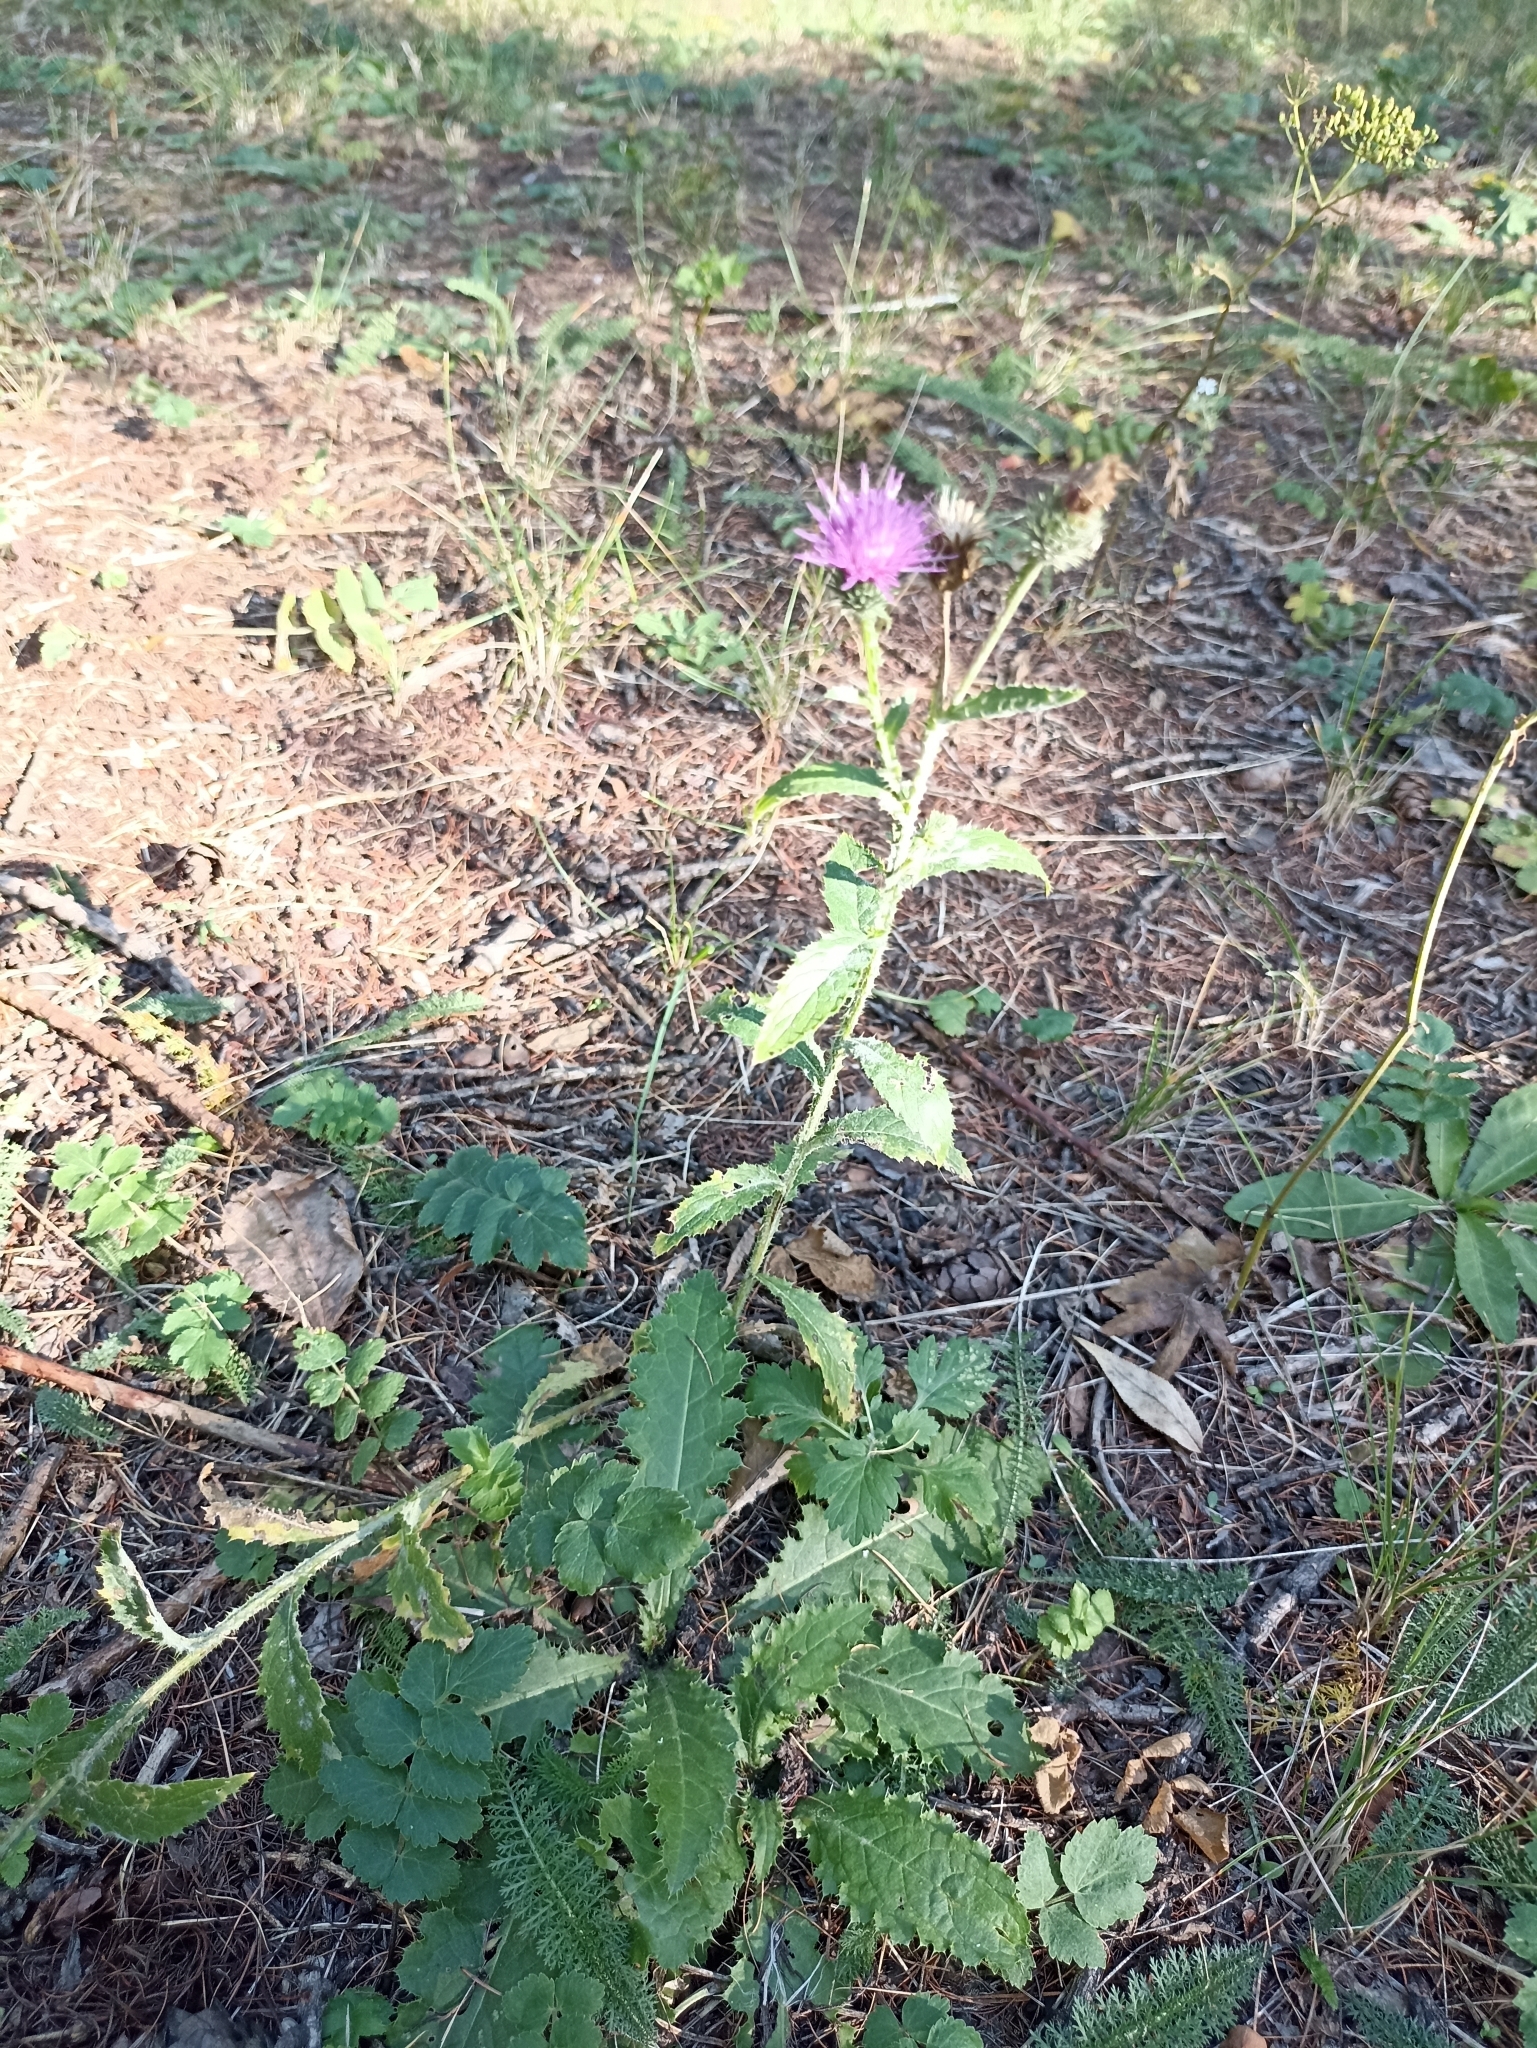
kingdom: Plantae
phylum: Tracheophyta
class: Magnoliopsida
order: Asterales
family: Asteraceae
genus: Carduus
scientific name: Carduus crispus
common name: Welted thistle
